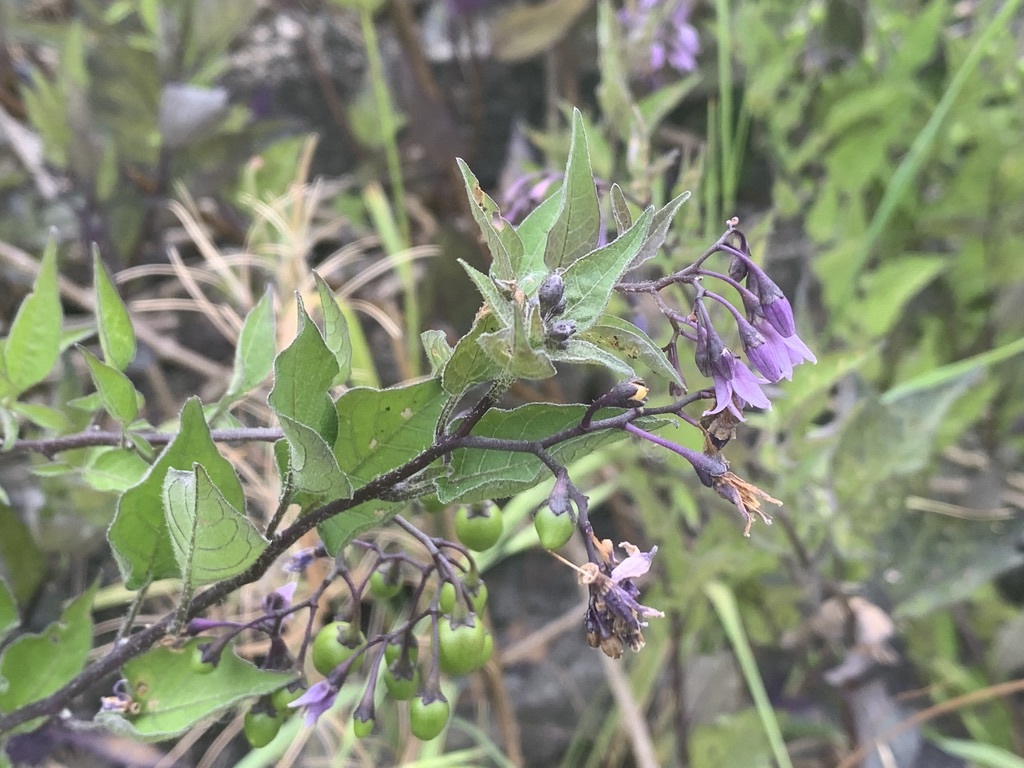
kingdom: Plantae
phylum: Tracheophyta
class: Magnoliopsida
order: Solanales
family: Solanaceae
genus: Solanum
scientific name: Solanum dulcamara
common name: Climbing nightshade
